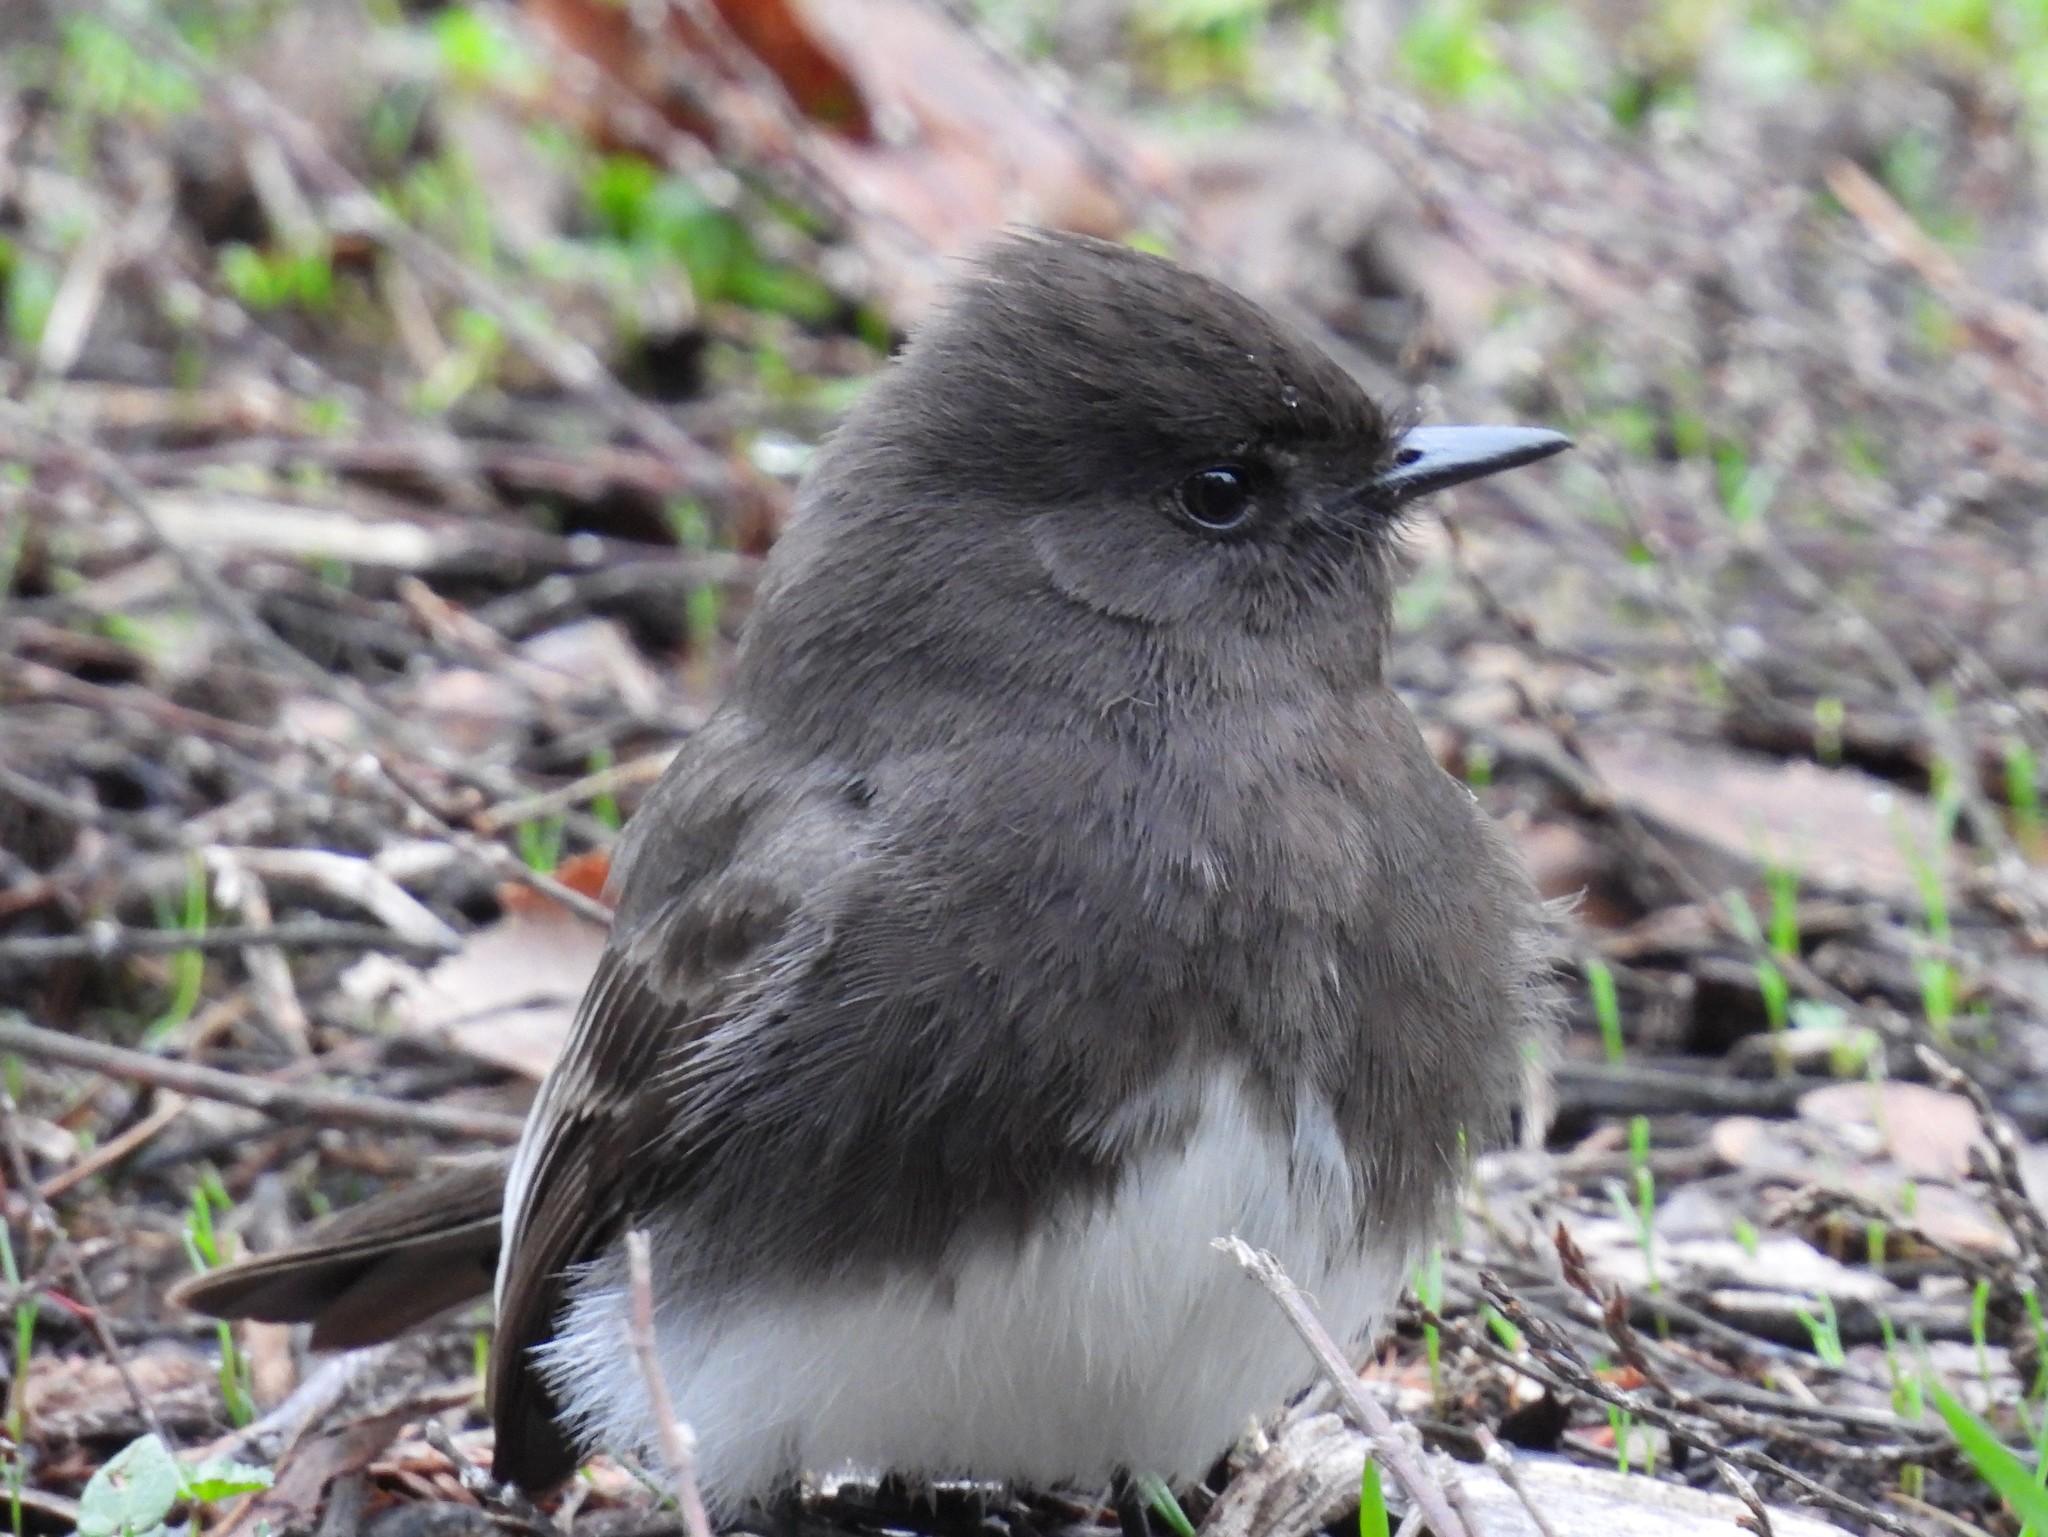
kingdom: Animalia
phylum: Chordata
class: Aves
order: Passeriformes
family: Tyrannidae
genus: Sayornis
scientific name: Sayornis nigricans
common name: Black phoebe
